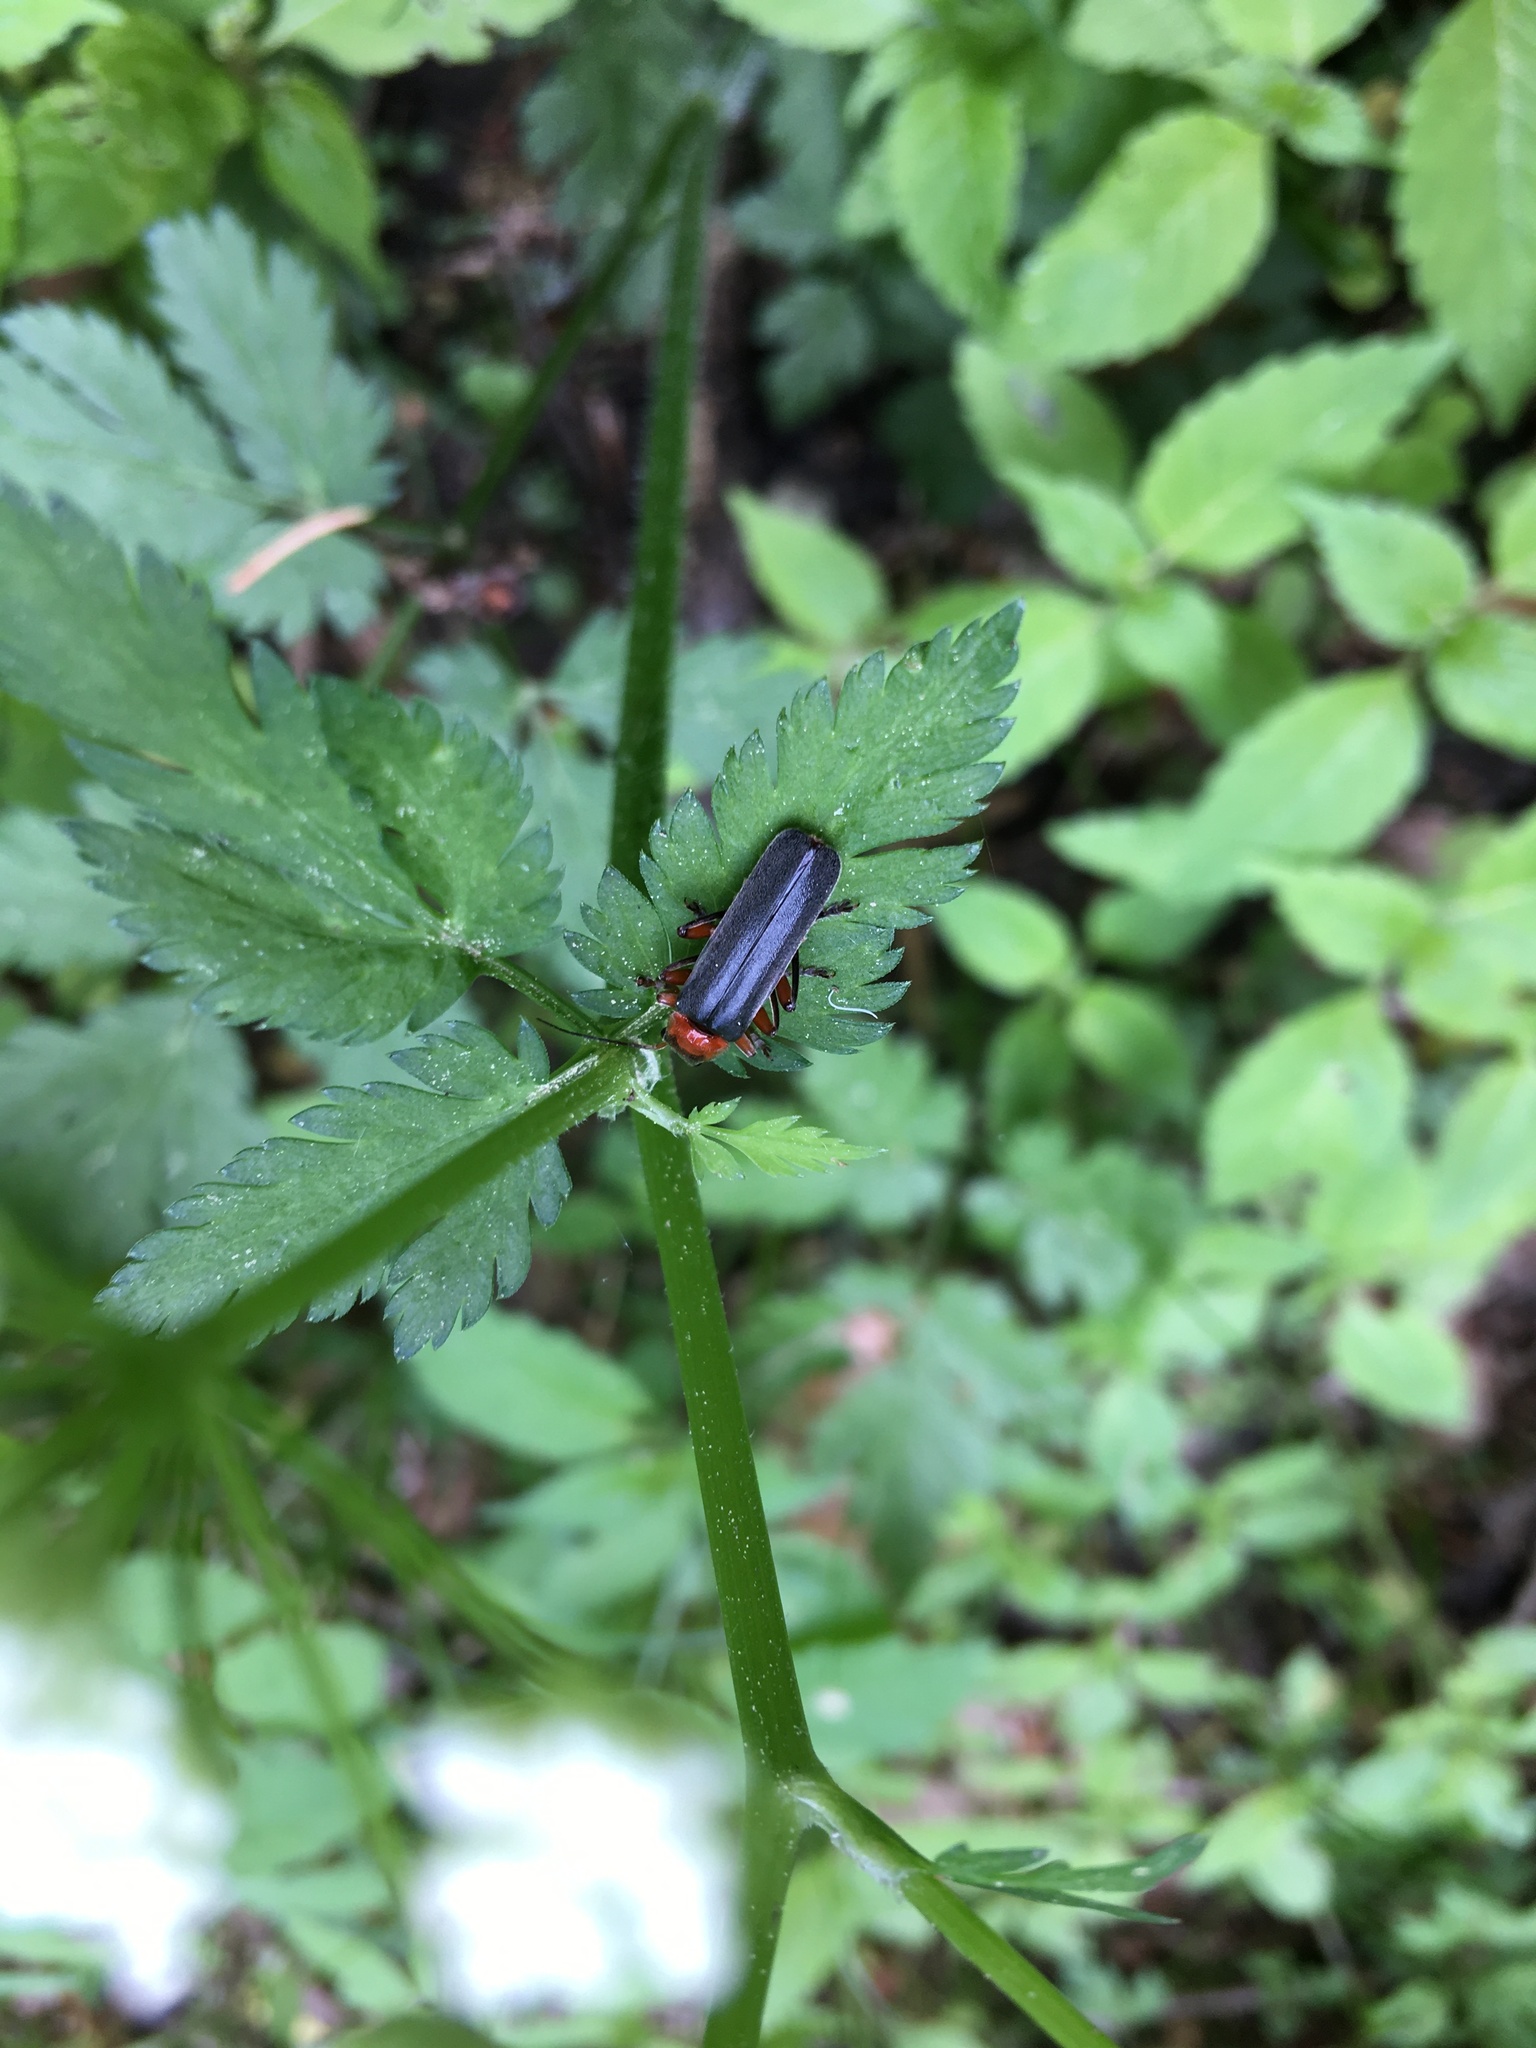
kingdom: Animalia
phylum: Arthropoda
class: Insecta
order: Coleoptera
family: Cantharidae
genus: Cantharis
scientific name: Cantharis pellucida
